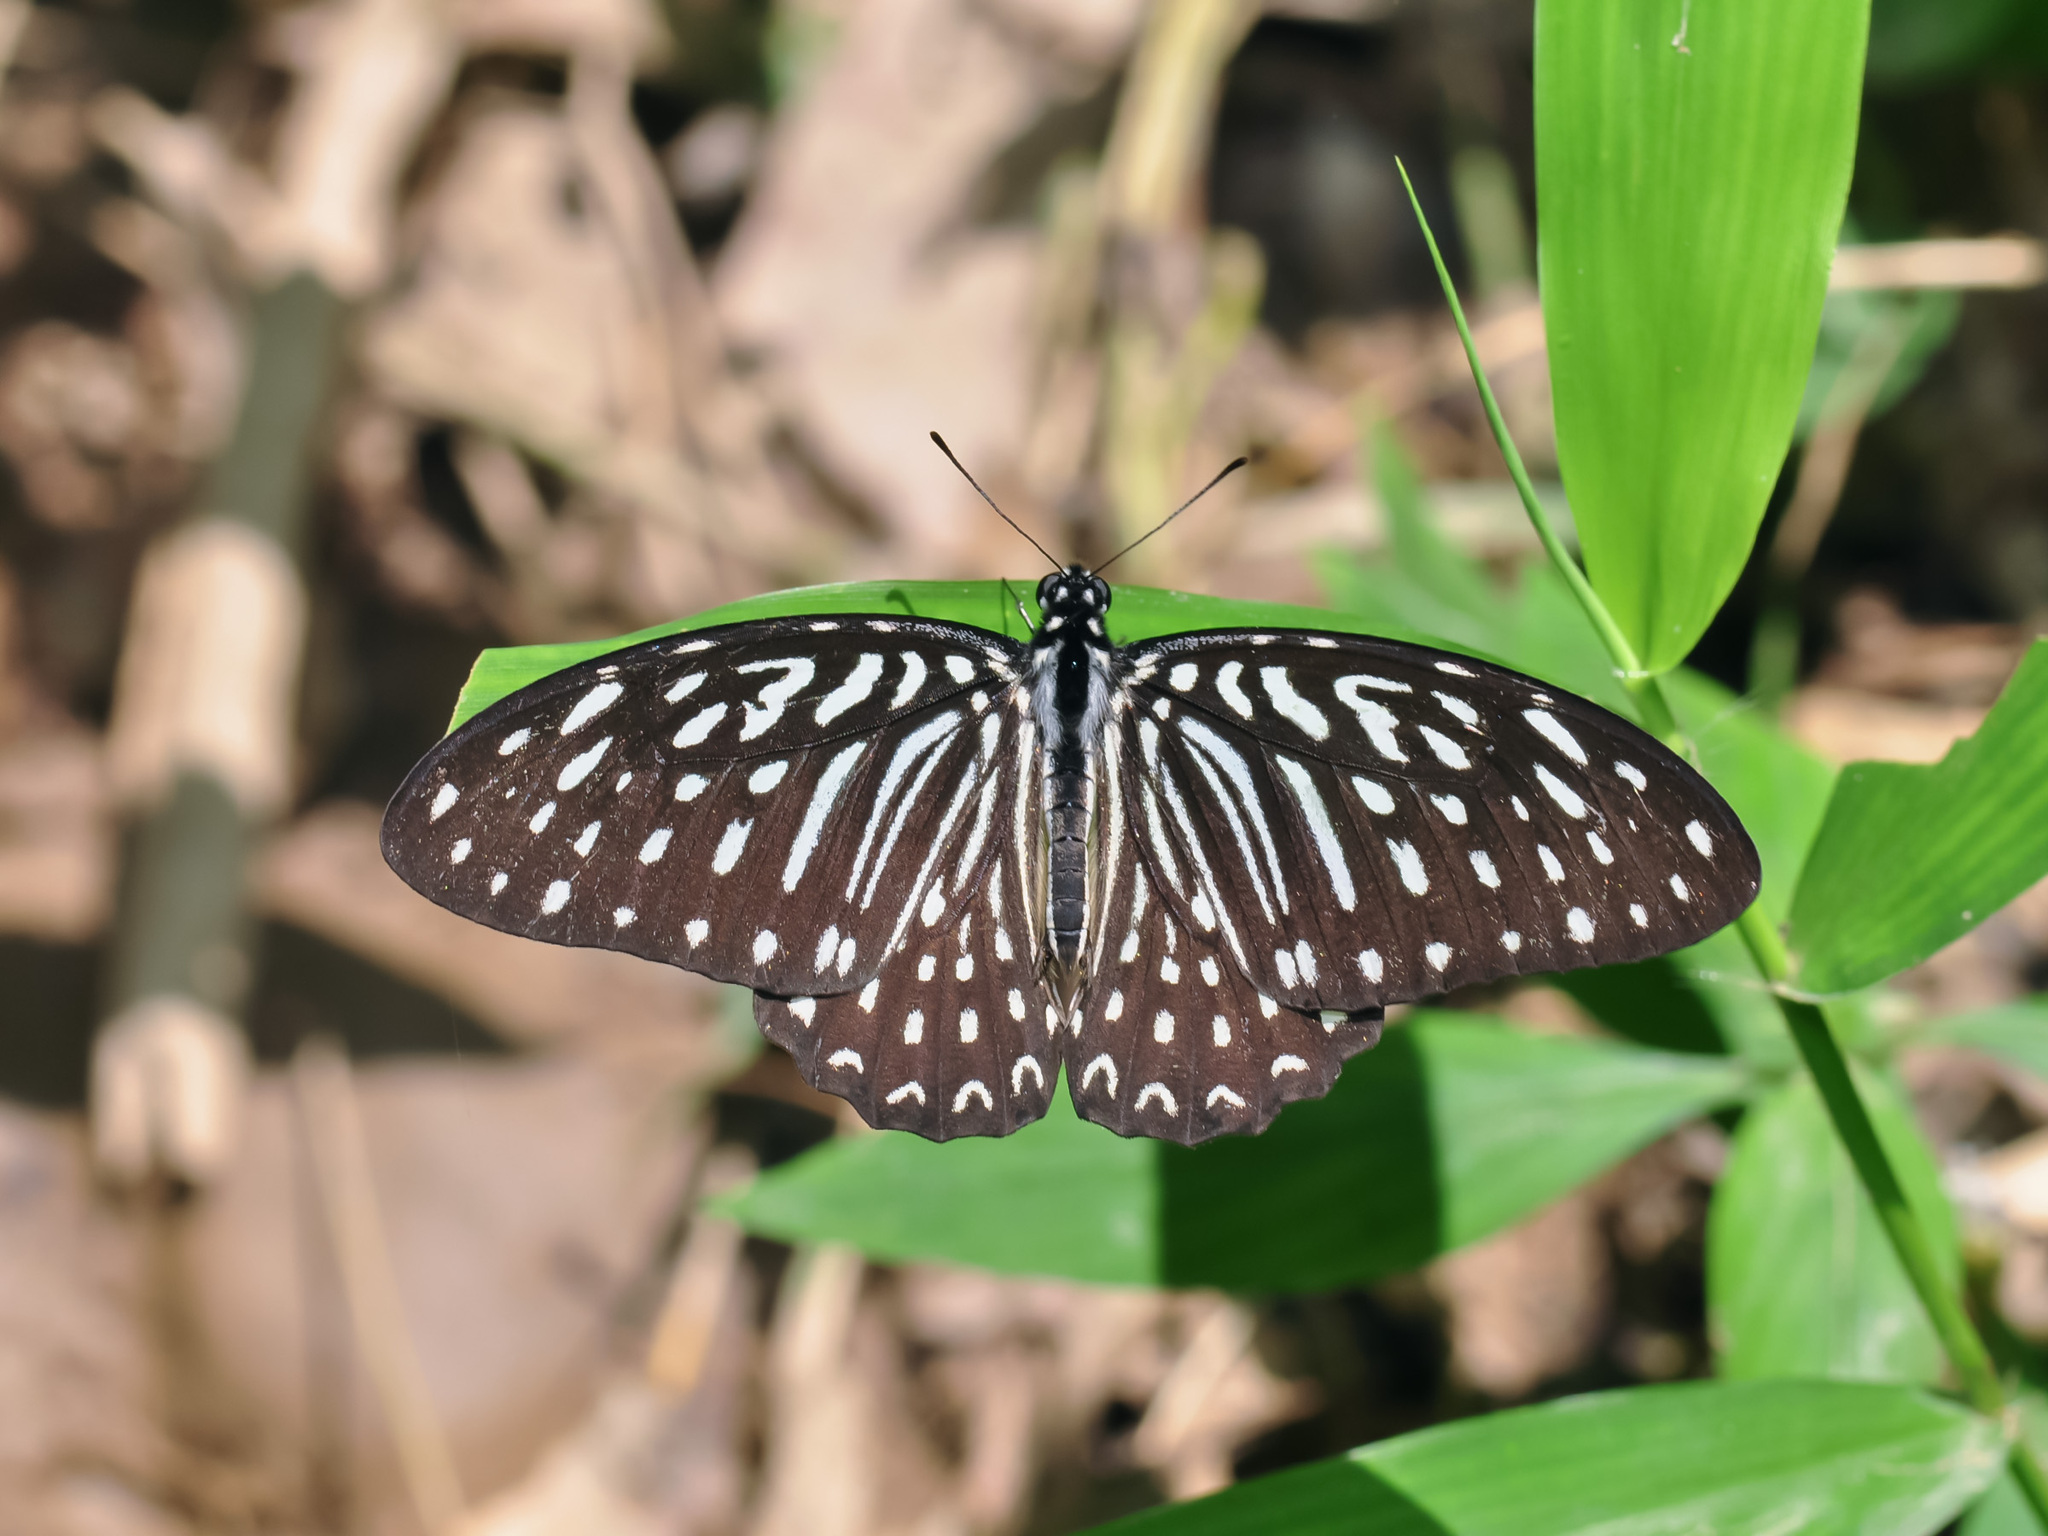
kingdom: Animalia
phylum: Arthropoda
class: Insecta
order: Lepidoptera
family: Papilionidae
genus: Graphium
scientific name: Graphium megarus
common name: Spotted zebra
